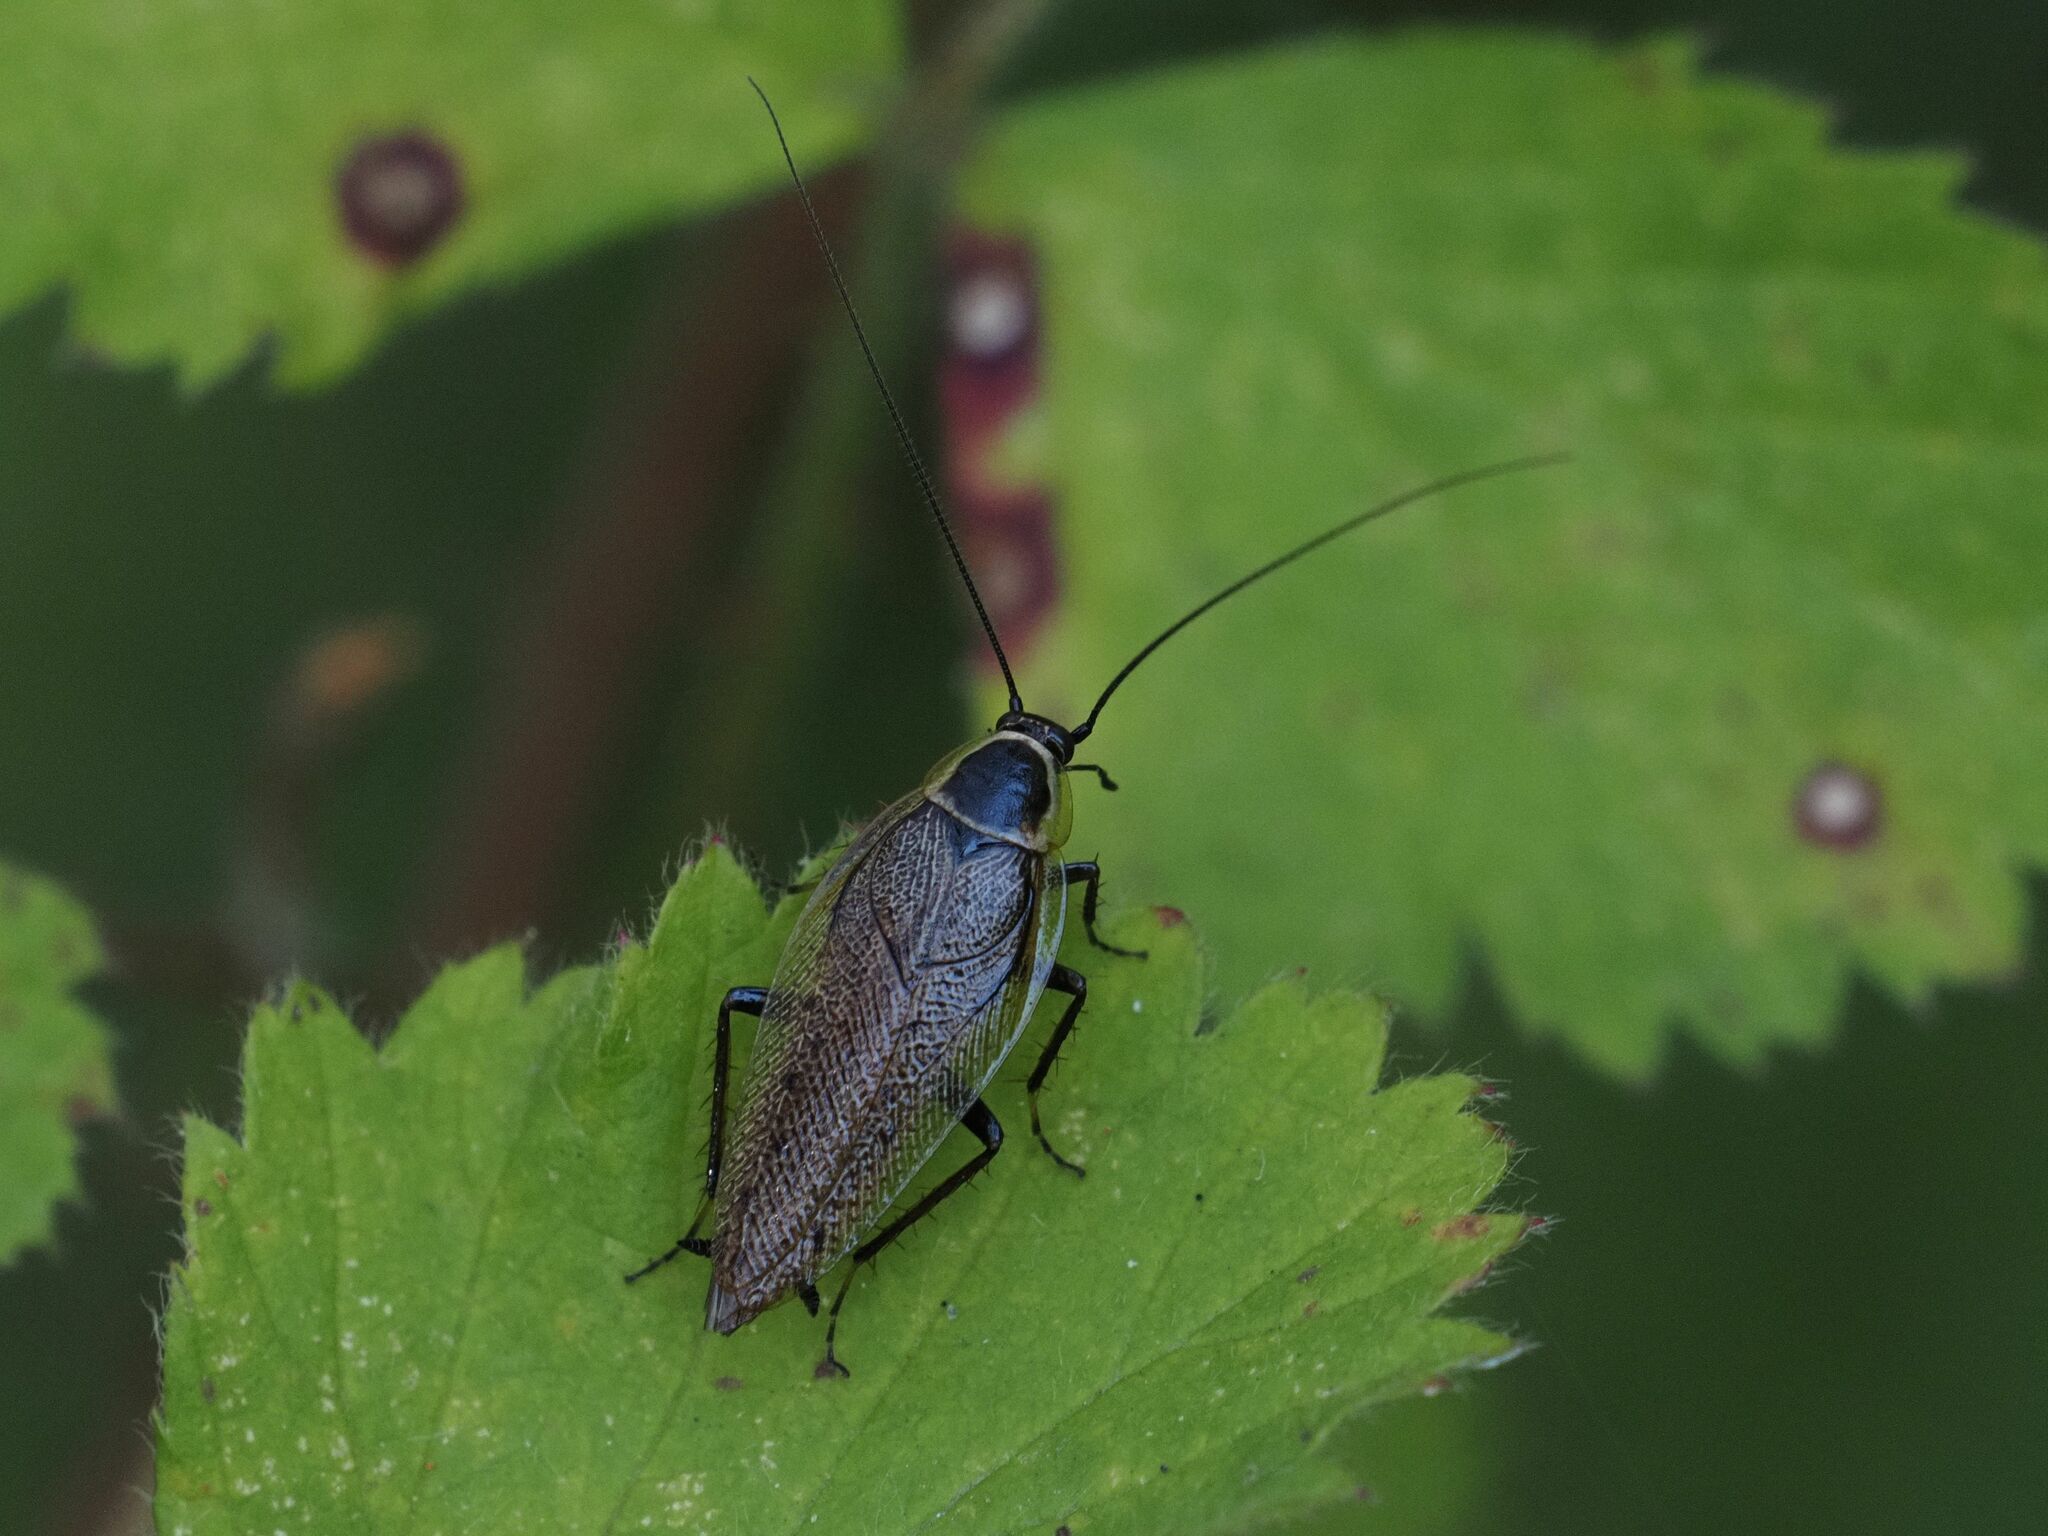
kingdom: Animalia
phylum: Arthropoda
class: Insecta
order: Blattodea
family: Ectobiidae
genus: Ectobius
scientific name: Ectobius sylvestris
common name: Forest cockroach
